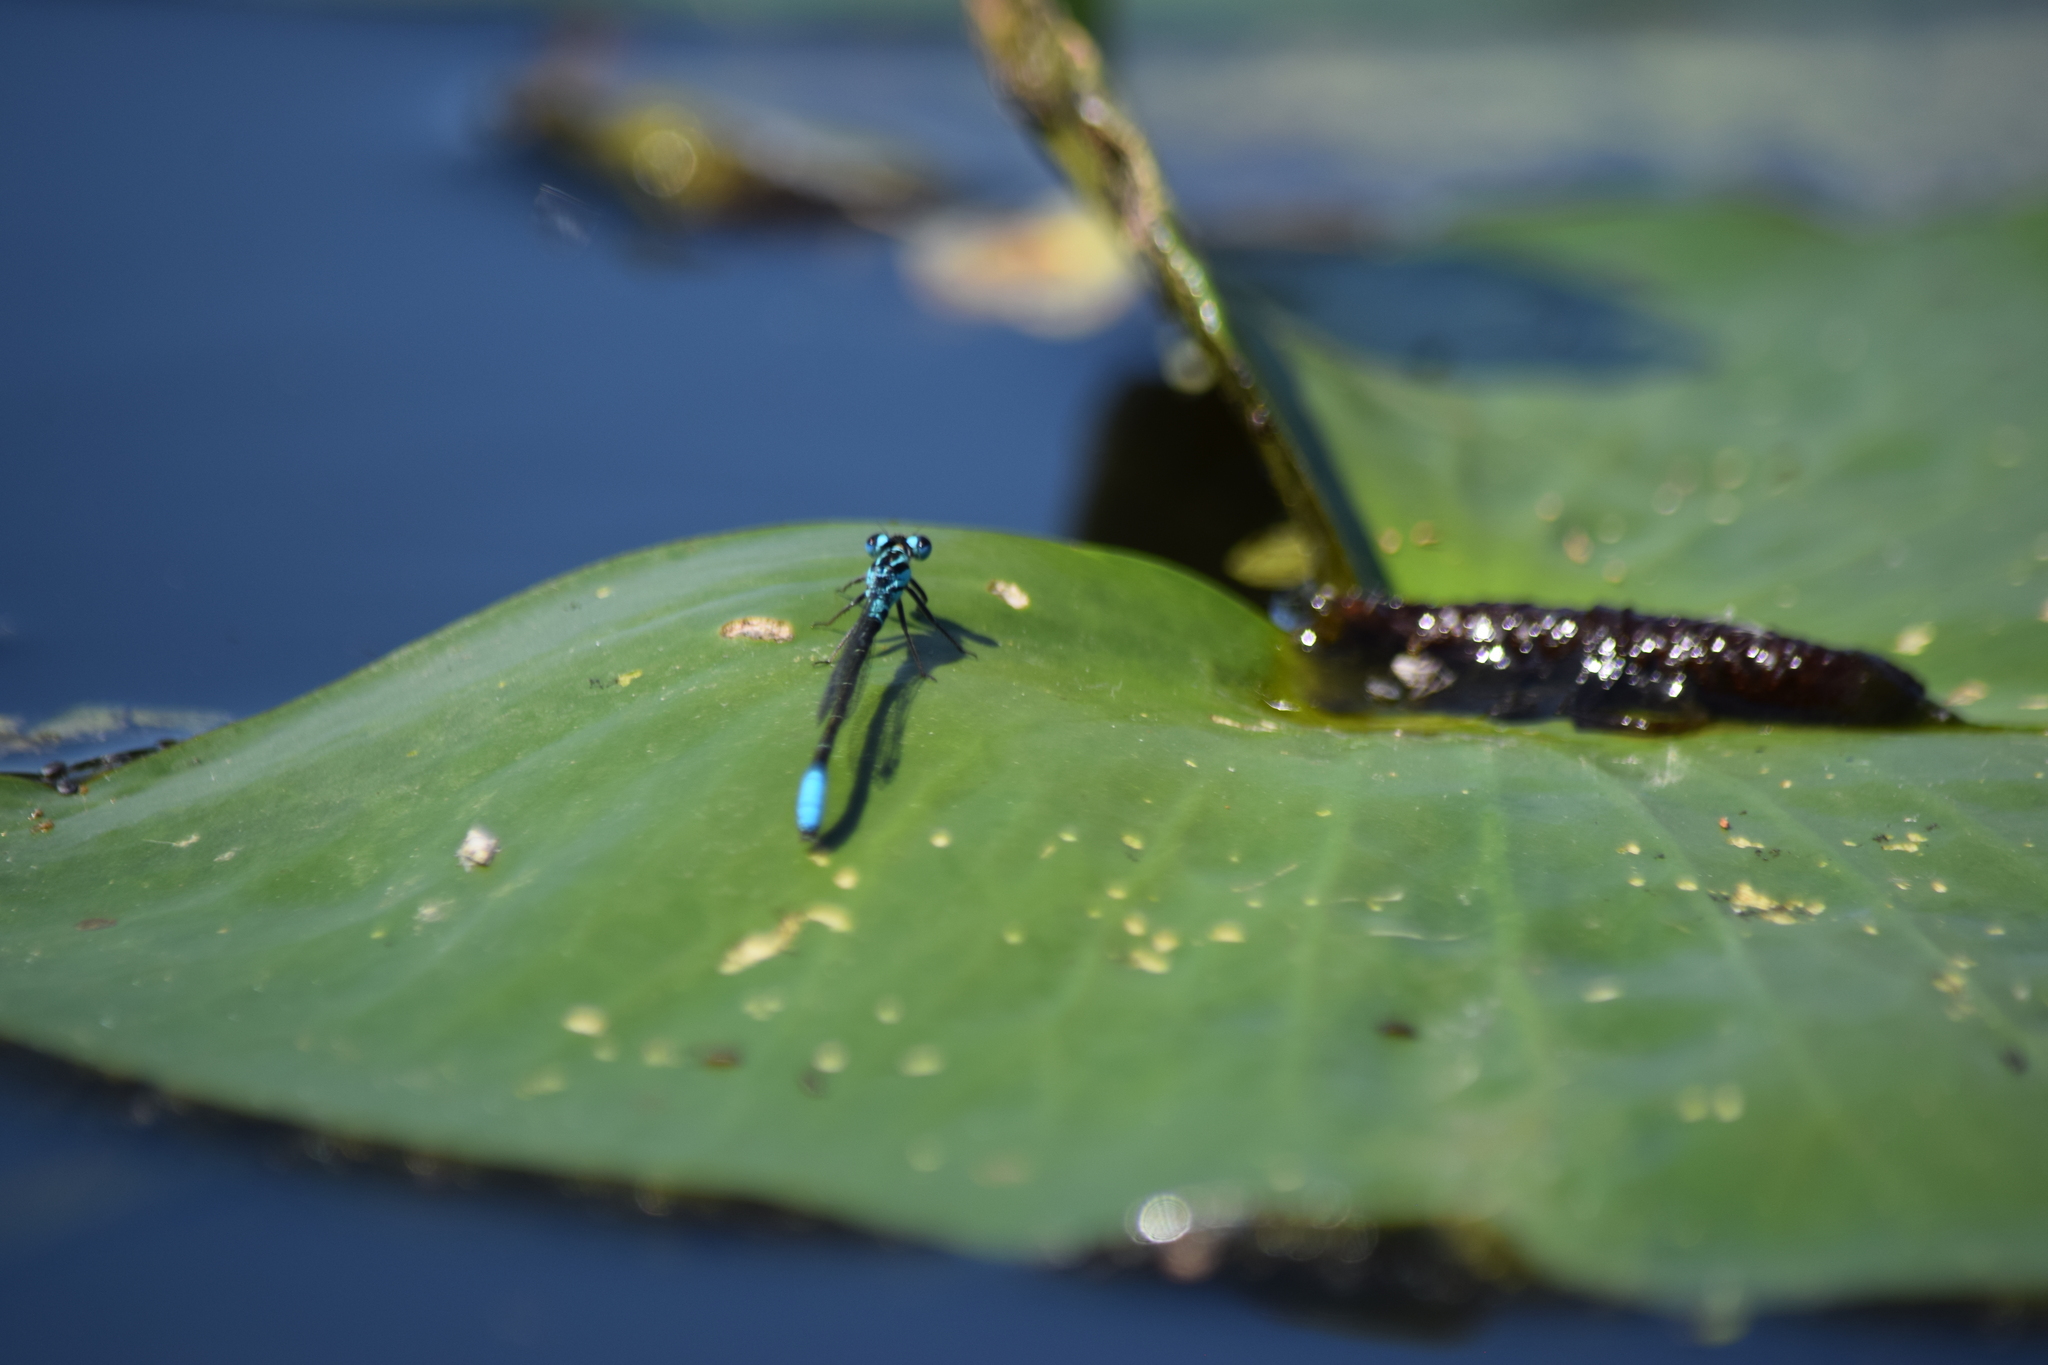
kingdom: Animalia
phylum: Arthropoda
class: Insecta
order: Odonata
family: Coenagrionidae
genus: Ischnura
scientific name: Ischnura kellicotti
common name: Lilypad forktail
